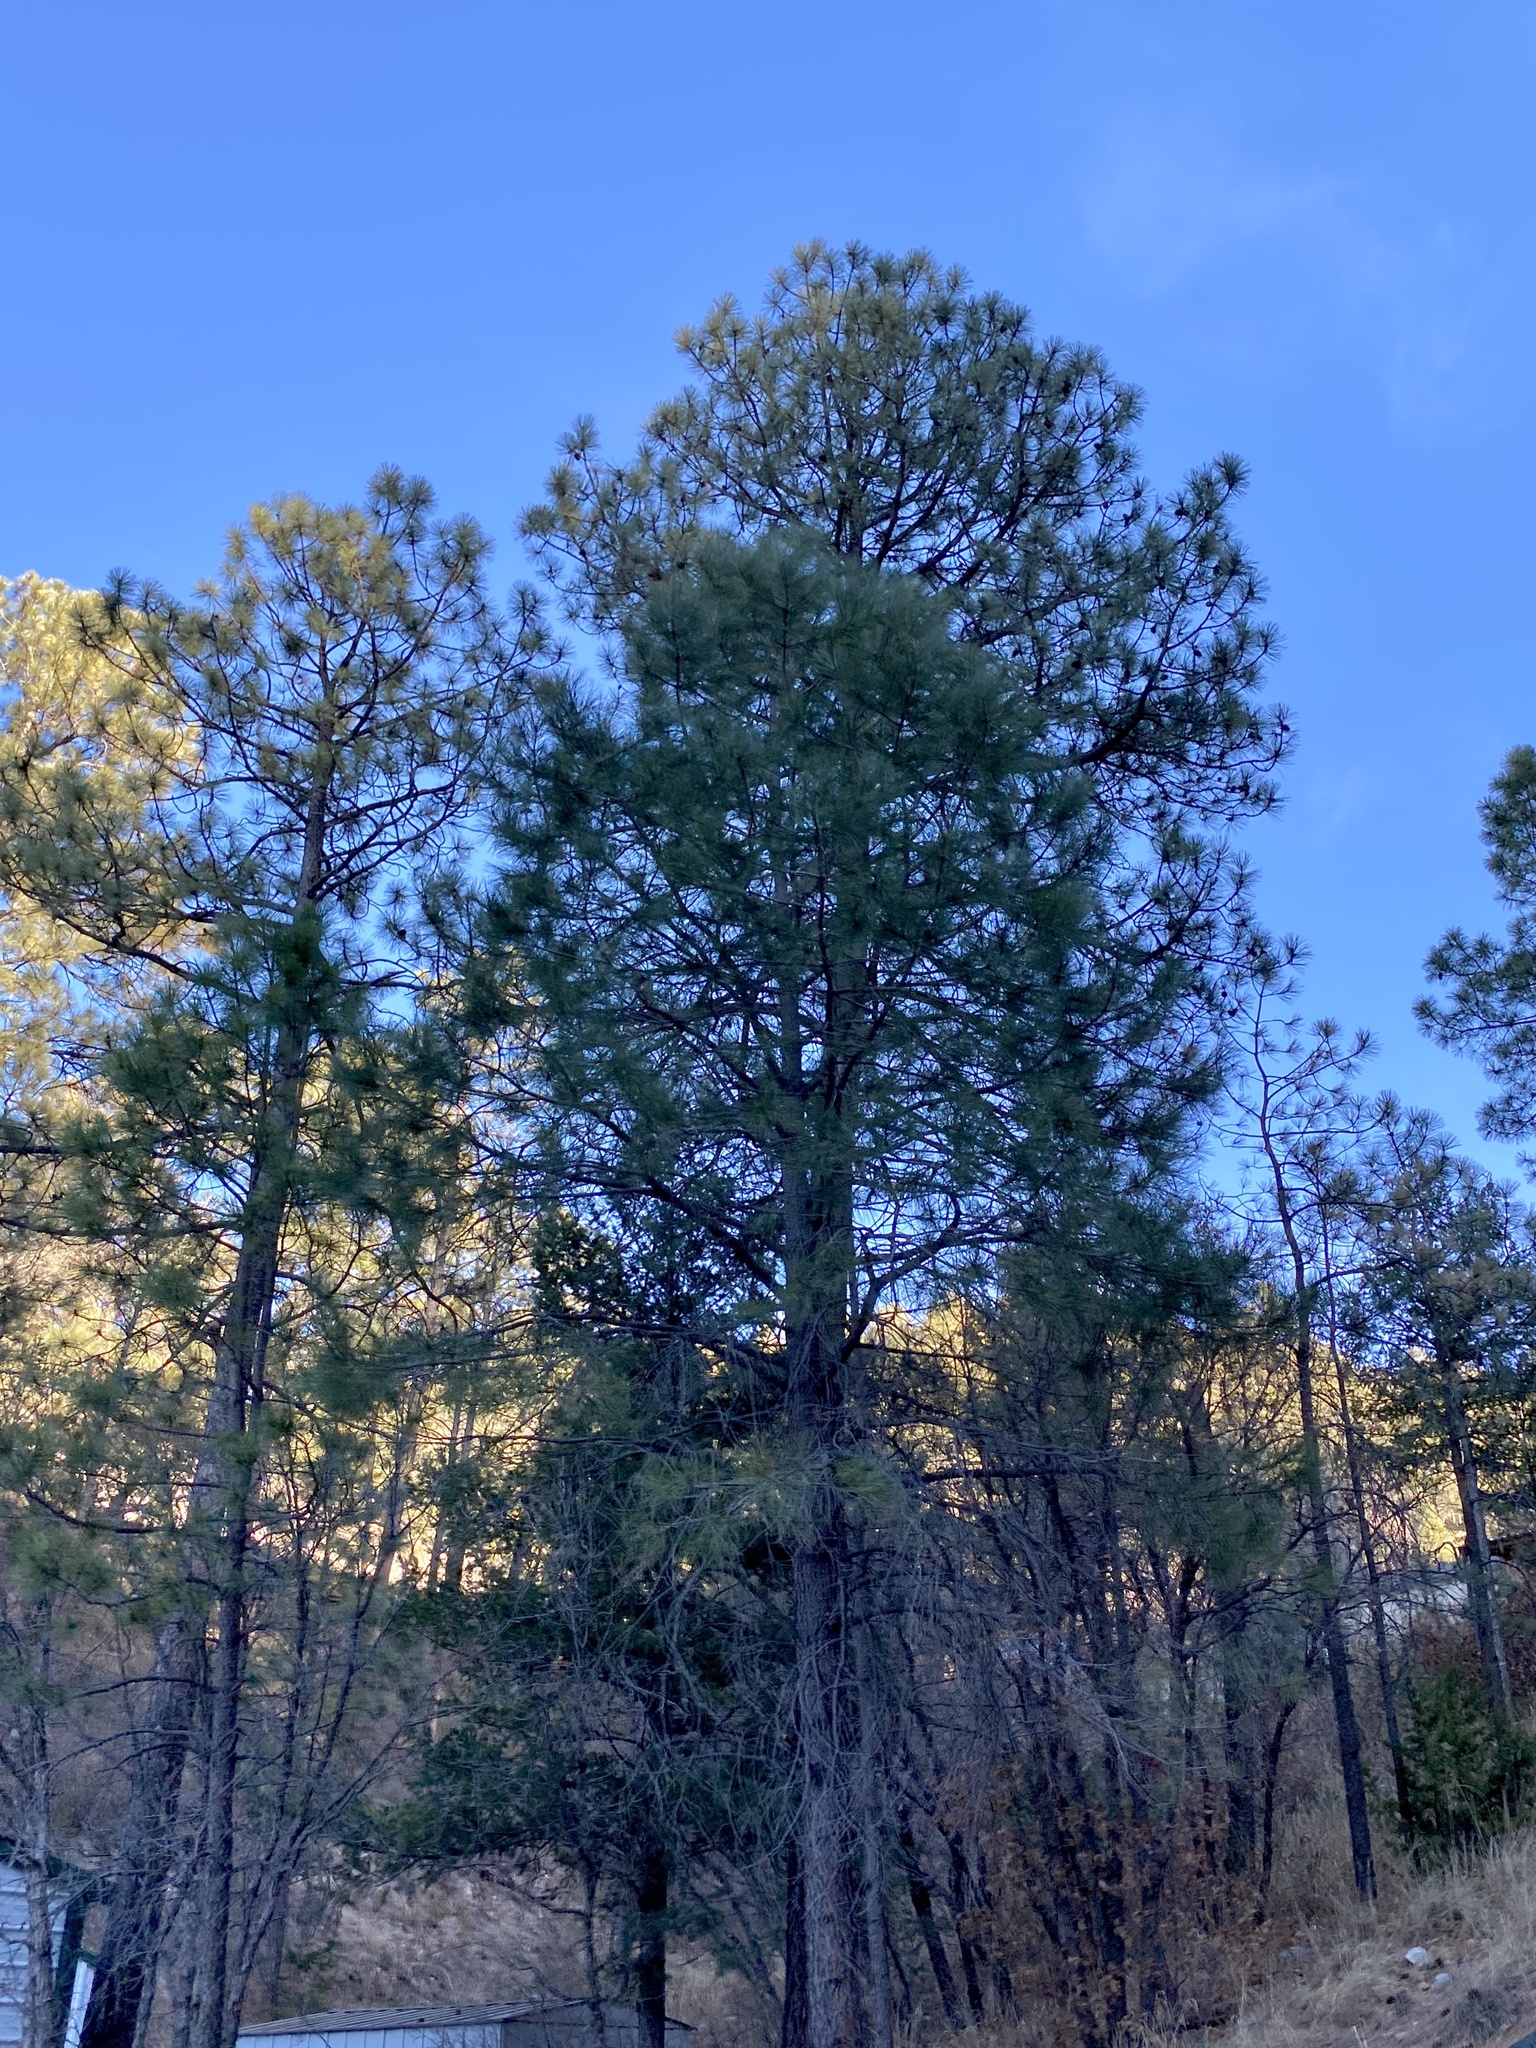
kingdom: Plantae
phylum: Tracheophyta
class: Pinopsida
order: Pinales
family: Pinaceae
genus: Pinus
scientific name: Pinus ponderosa
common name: Western yellow-pine
